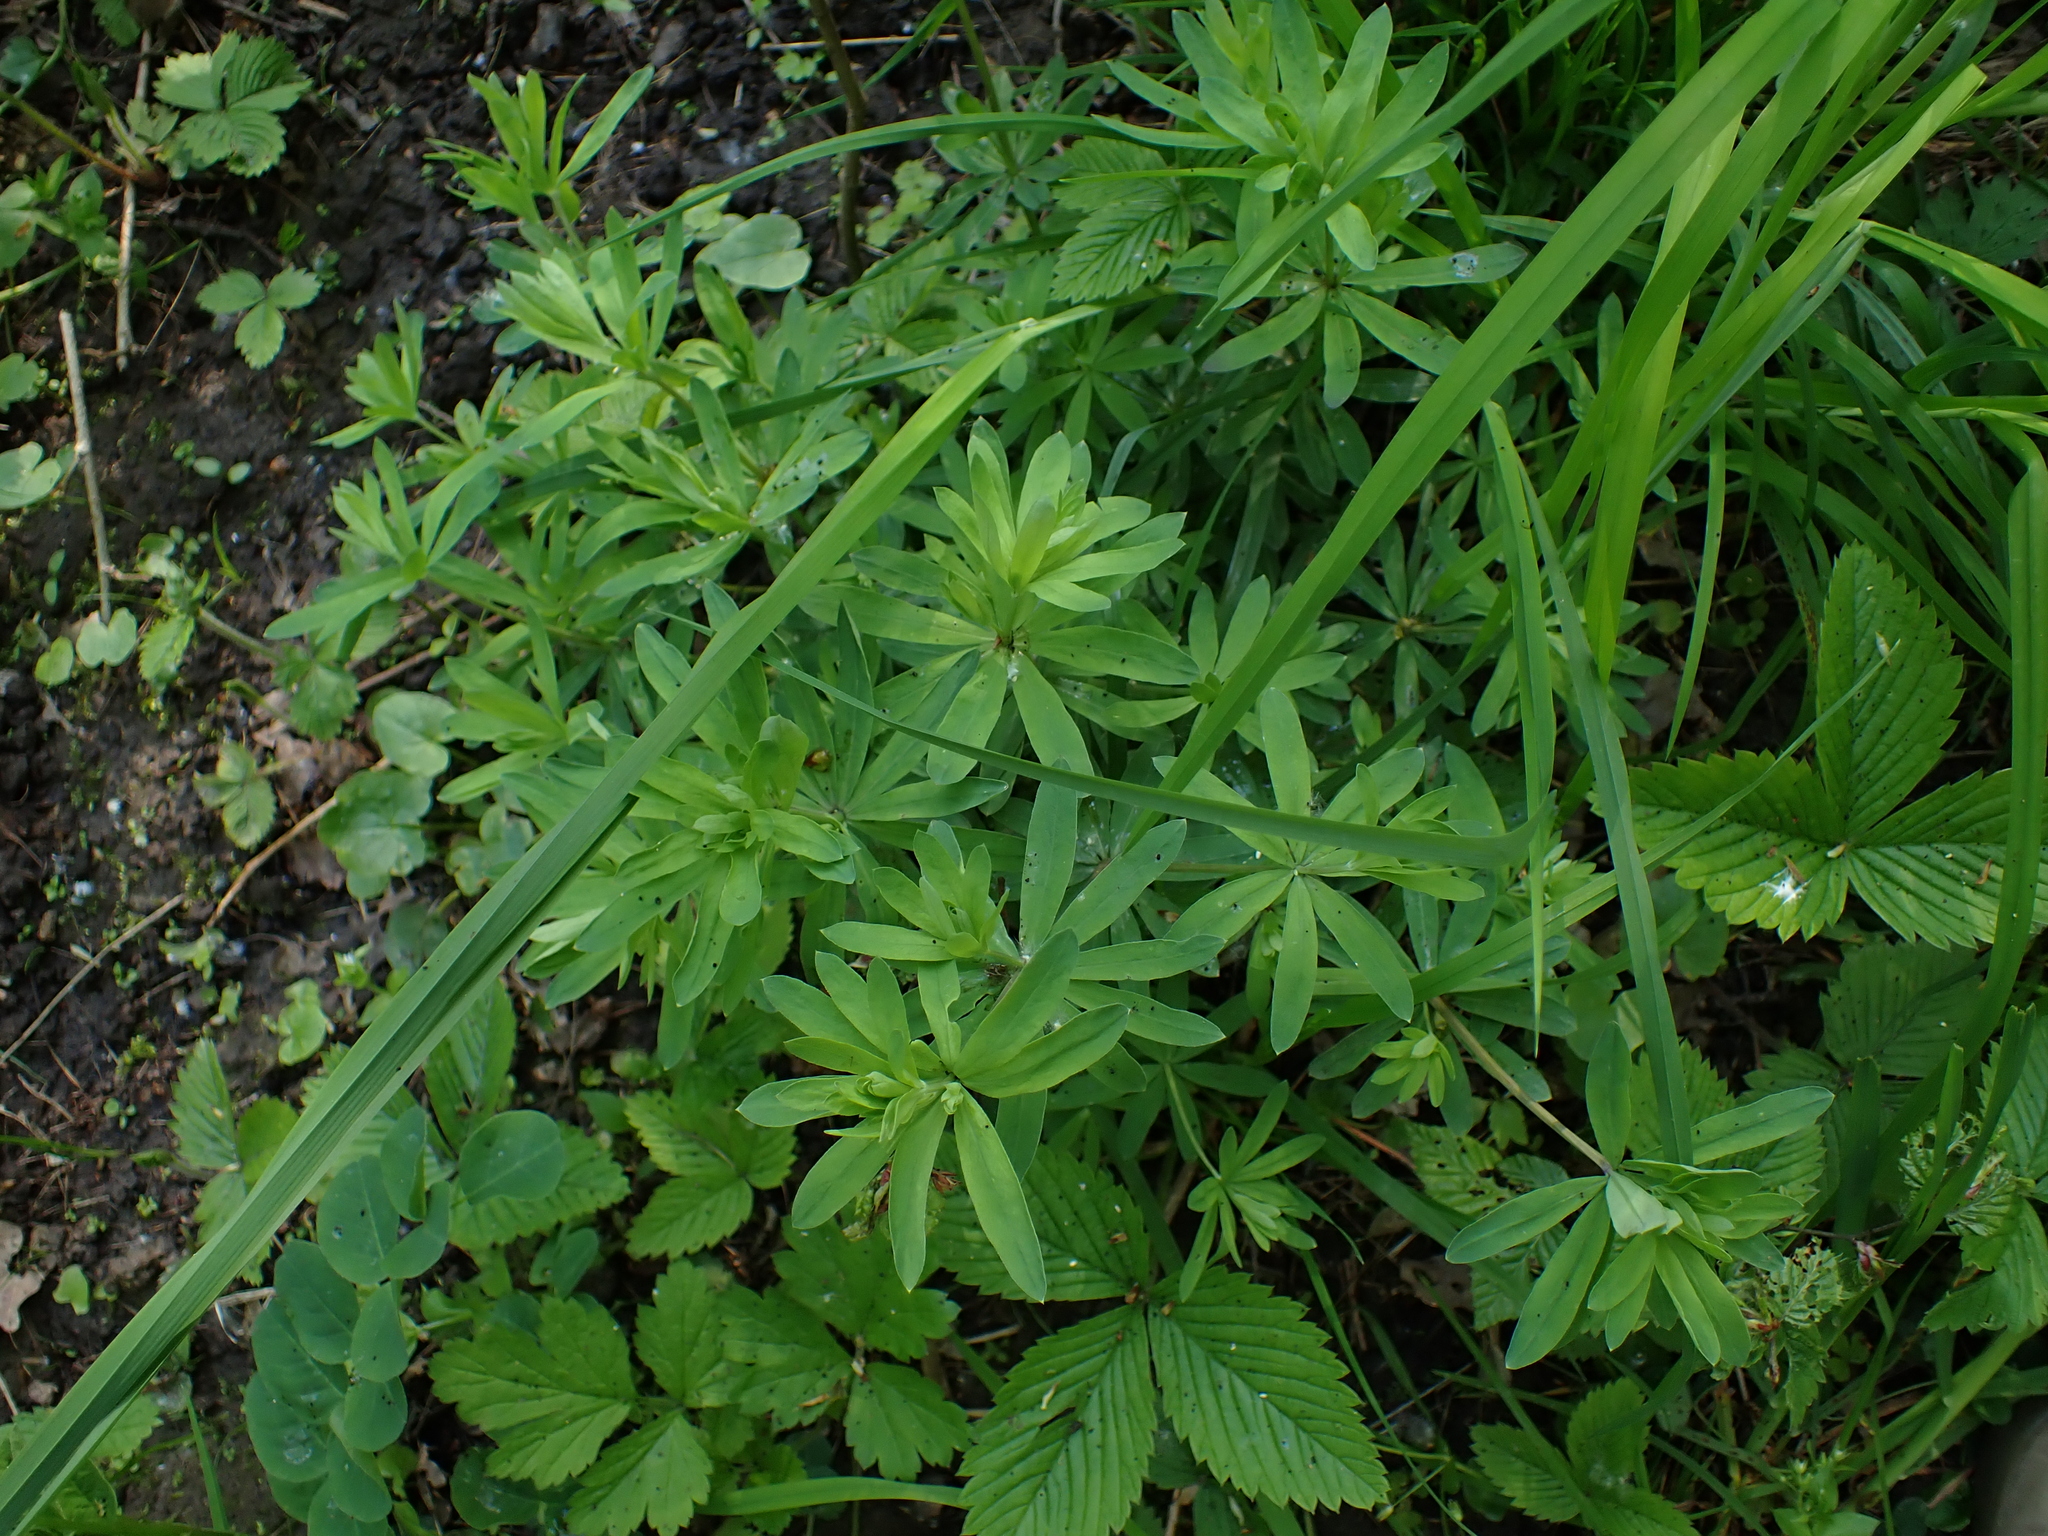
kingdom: Plantae
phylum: Tracheophyta
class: Magnoliopsida
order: Gentianales
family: Rubiaceae
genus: Galium
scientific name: Galium sylvaticum
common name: Wood bedstraw
